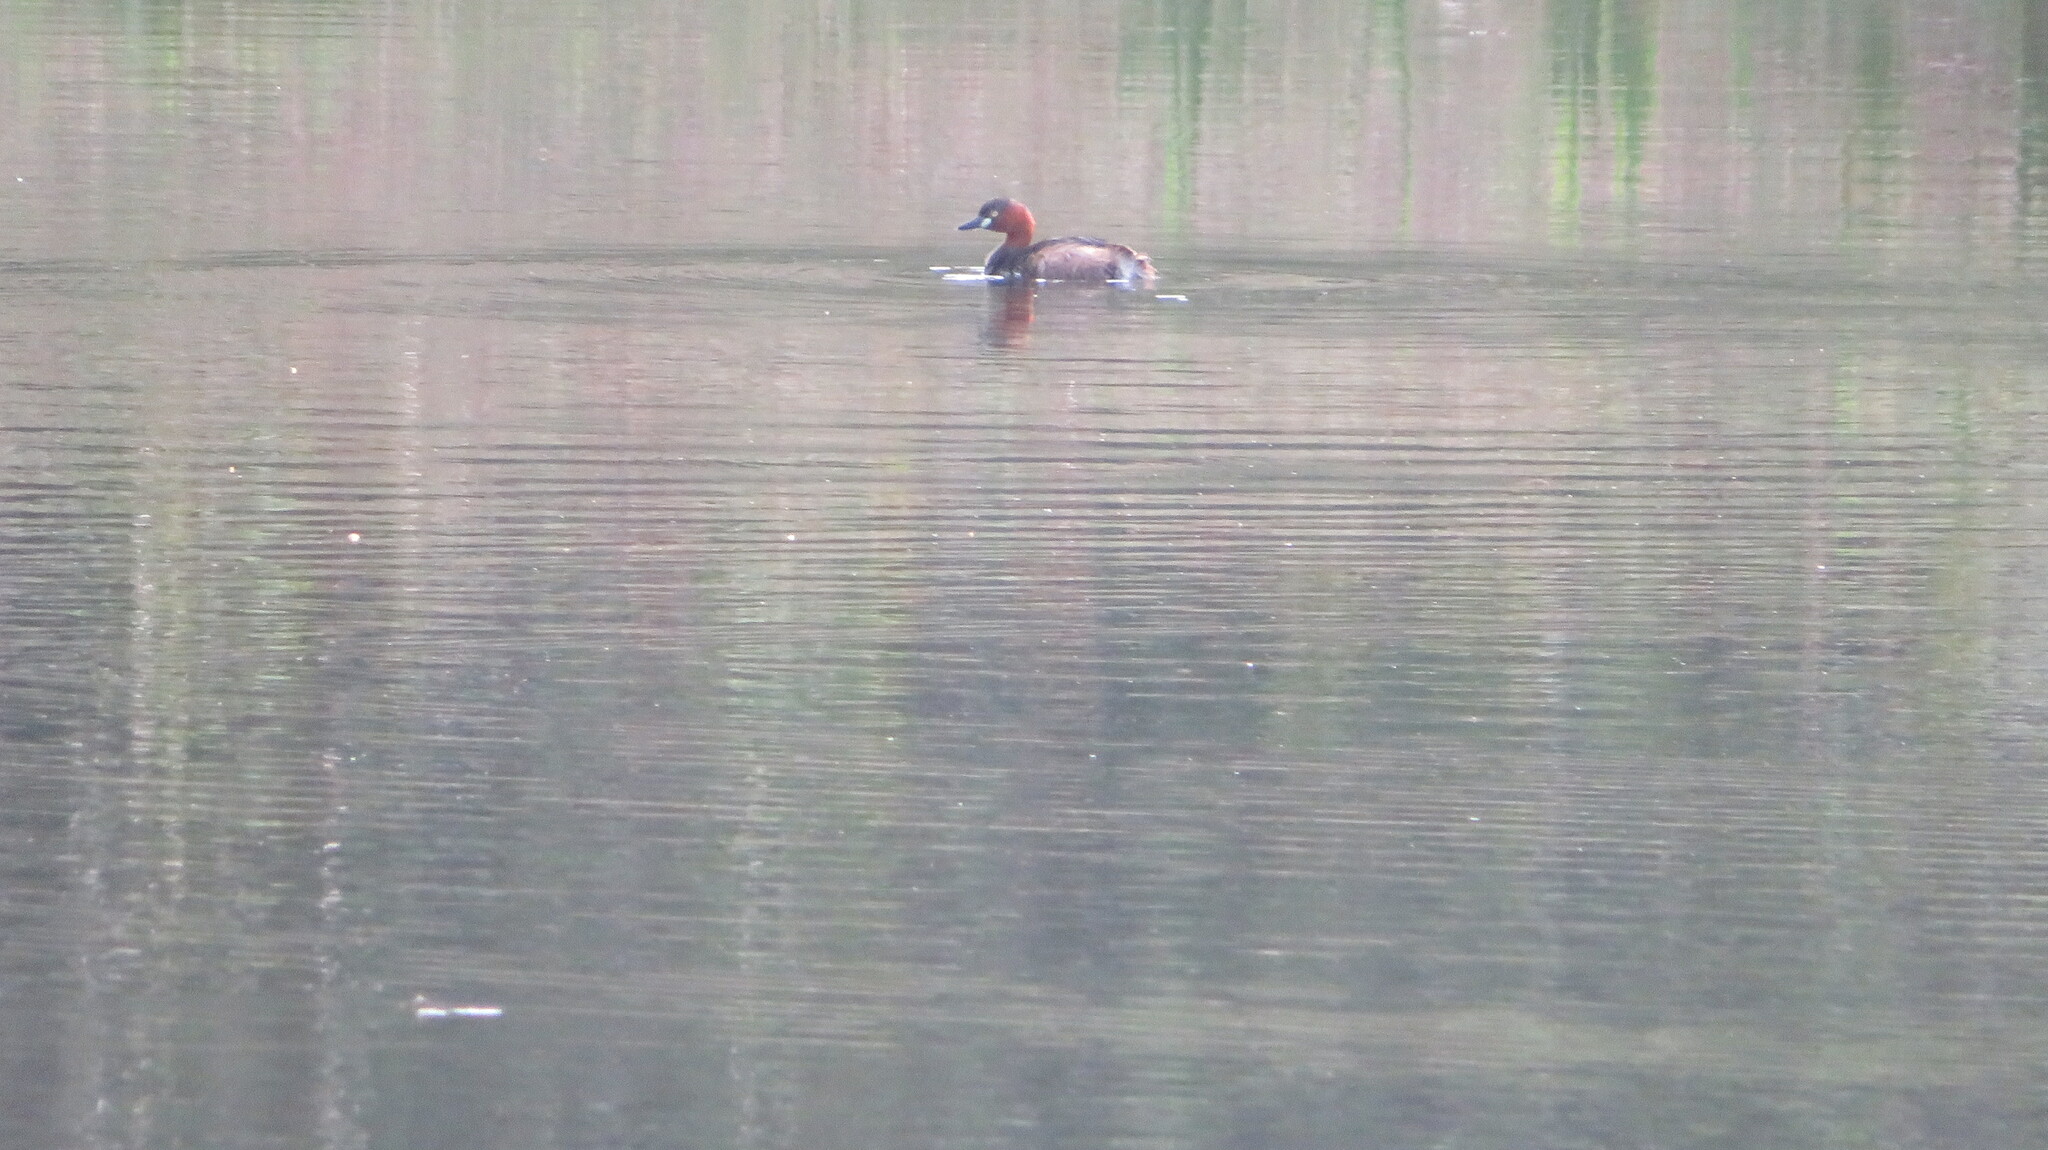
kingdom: Animalia
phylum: Chordata
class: Aves
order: Podicipediformes
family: Podicipedidae
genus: Tachybaptus
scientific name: Tachybaptus ruficollis
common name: Little grebe
